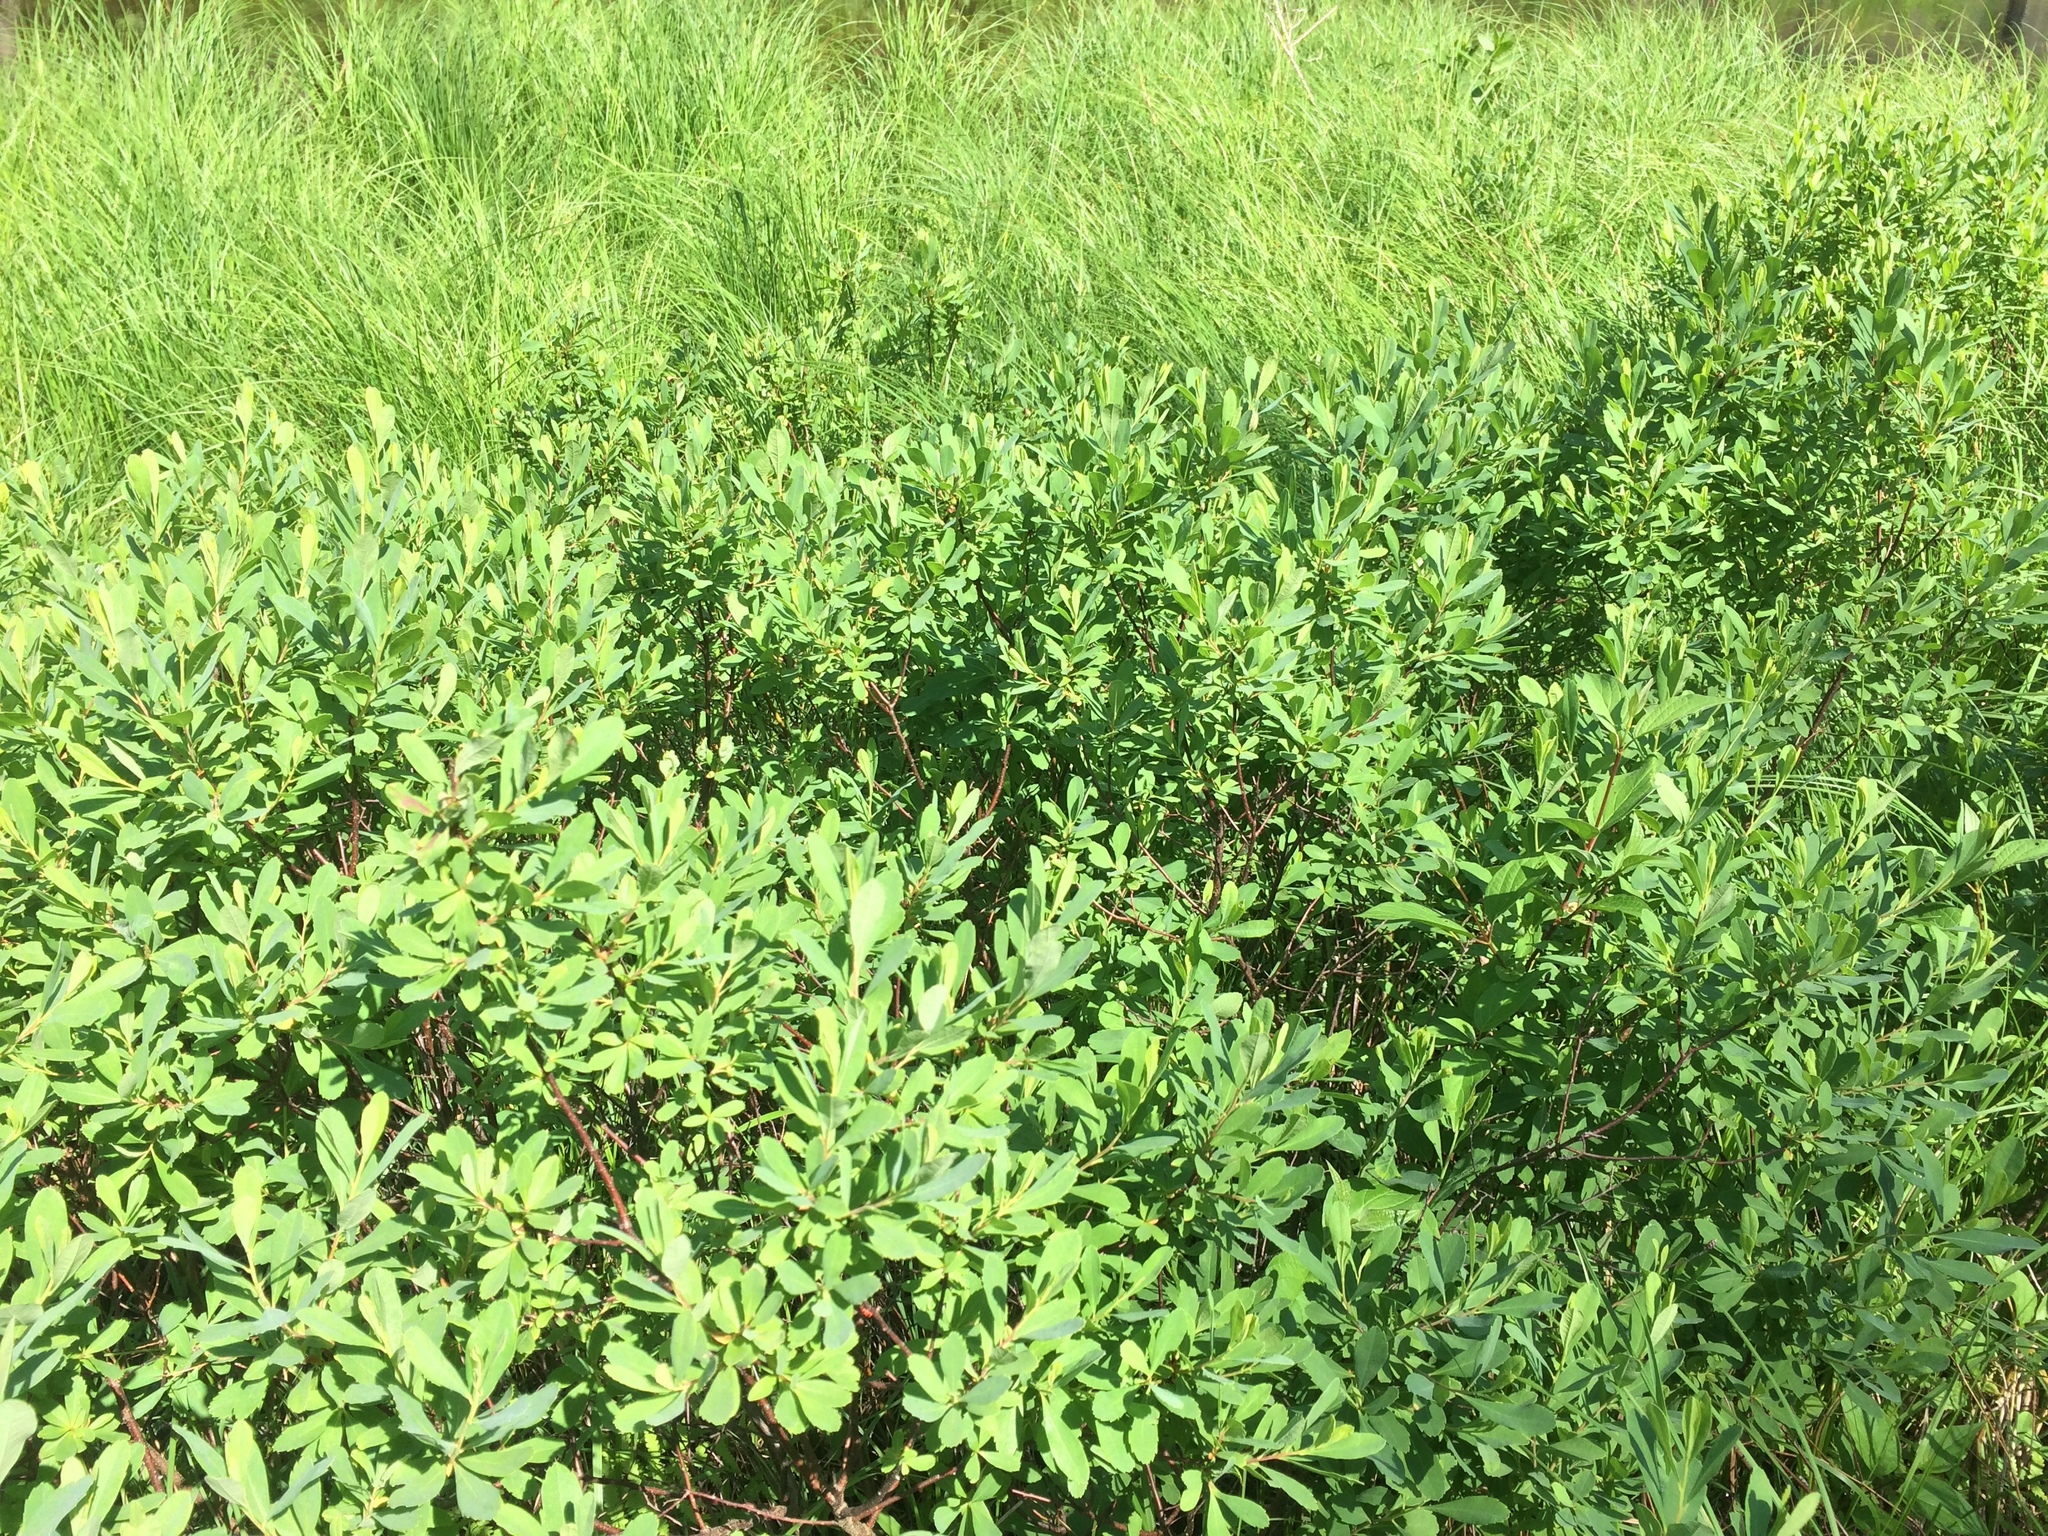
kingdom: Plantae
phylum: Tracheophyta
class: Magnoliopsida
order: Fagales
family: Myricaceae
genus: Myrica
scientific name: Myrica gale
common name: Sweet gale
